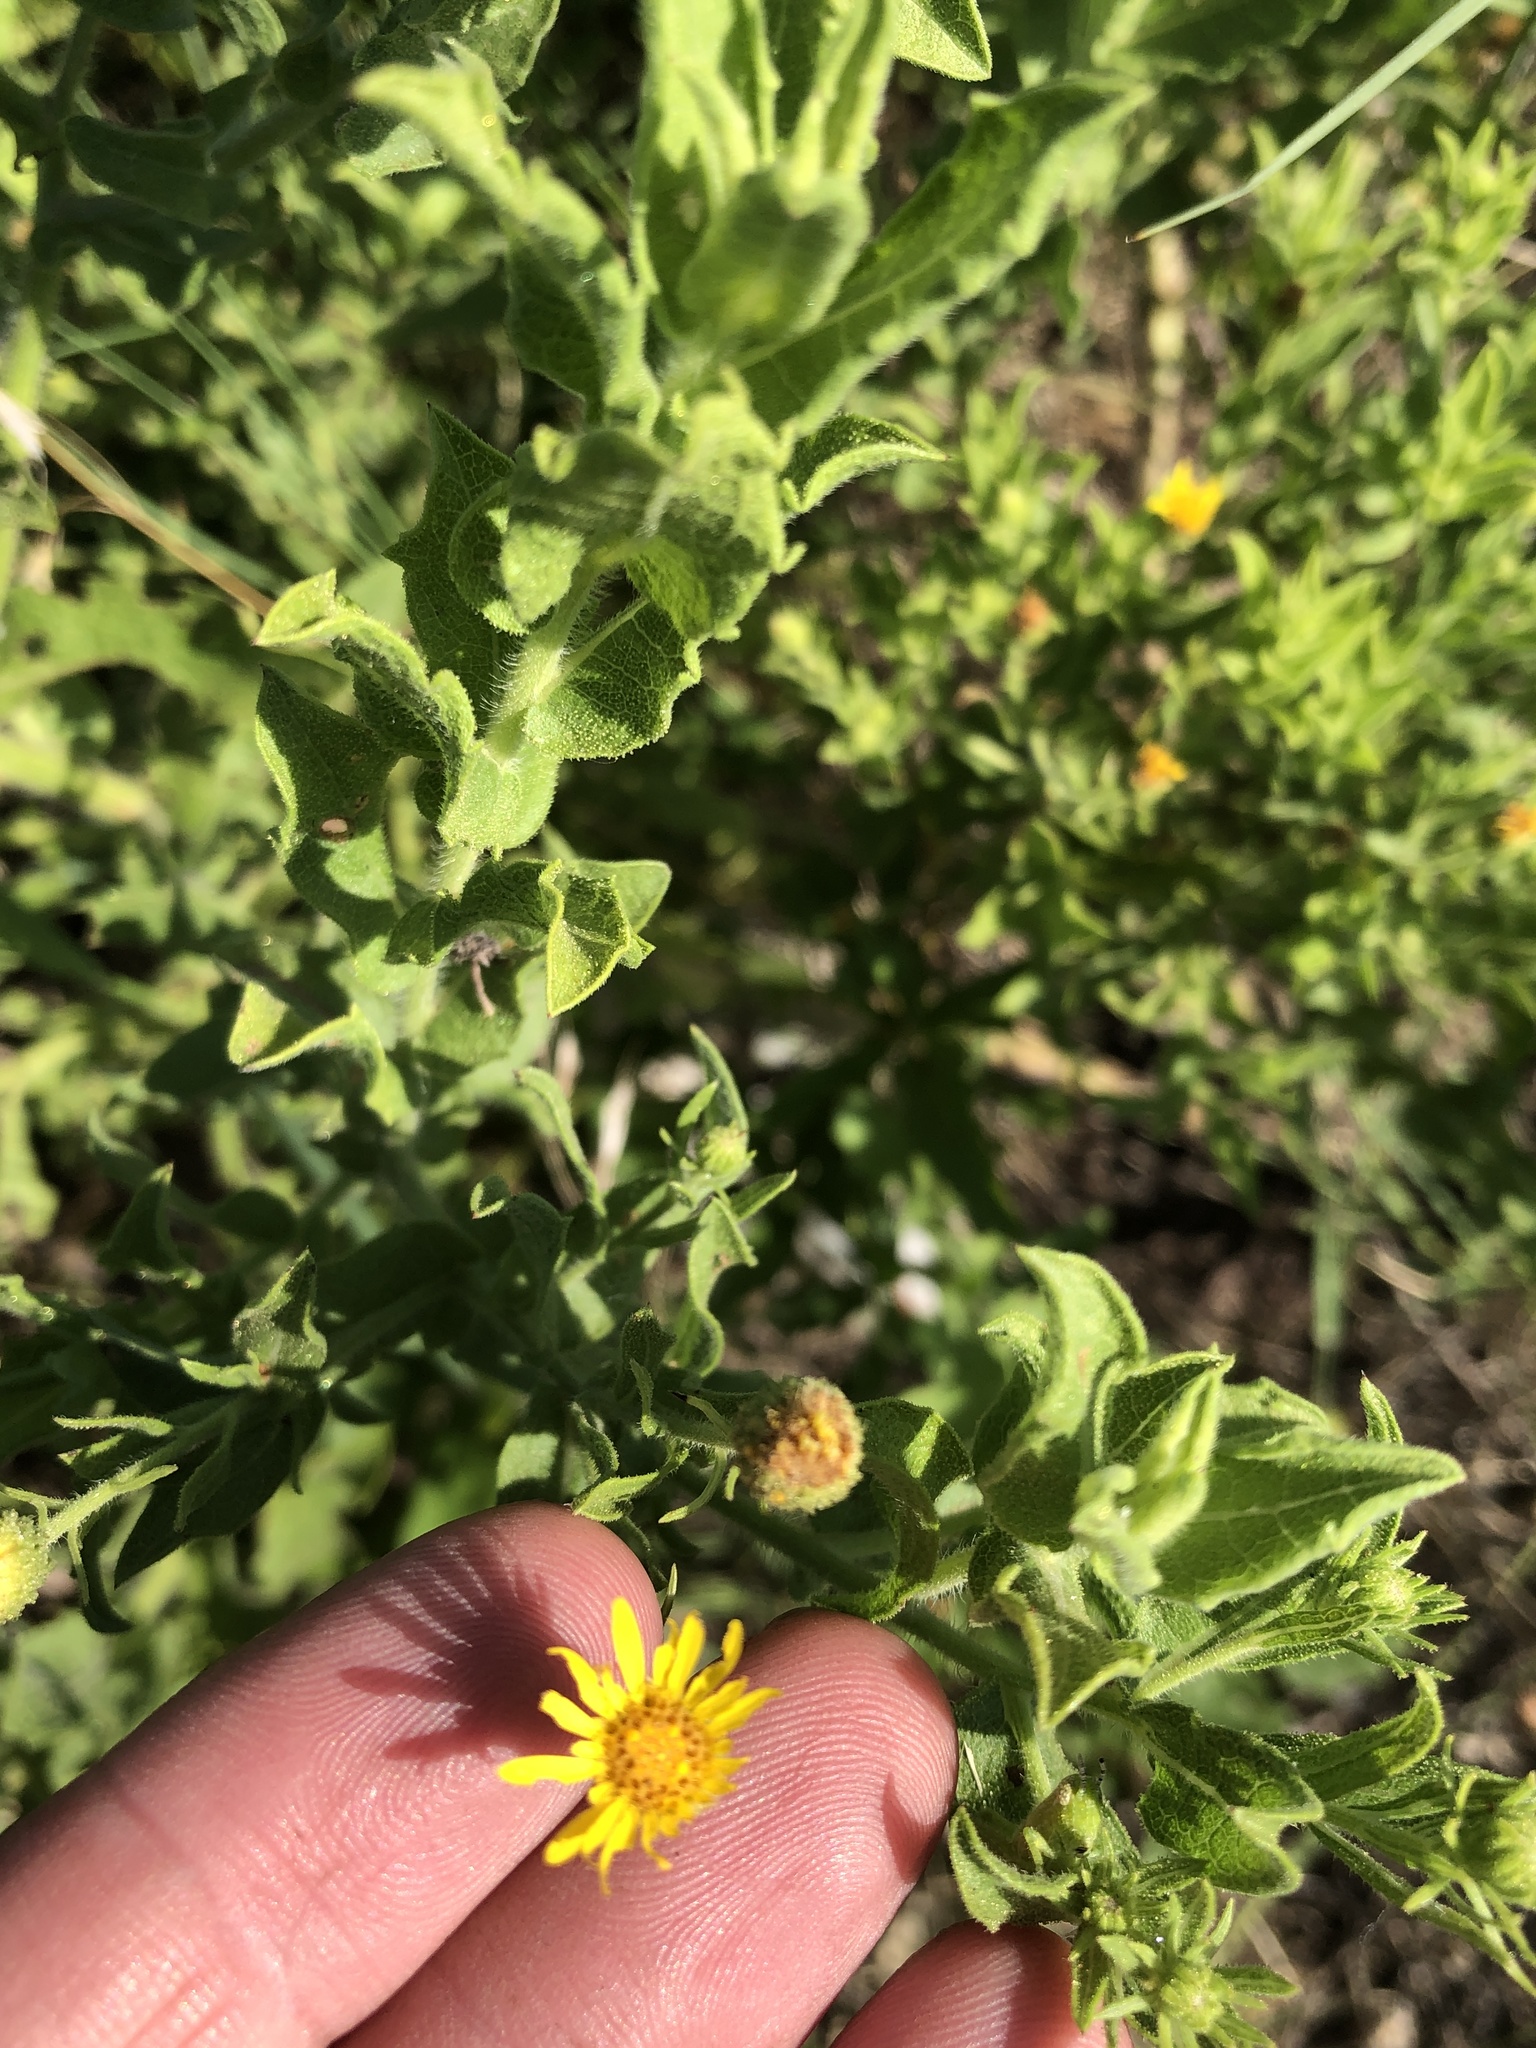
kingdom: Plantae
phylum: Tracheophyta
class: Magnoliopsida
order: Asterales
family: Asteraceae
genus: Heterotheca
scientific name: Heterotheca subaxillaris
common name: Camphorweed
